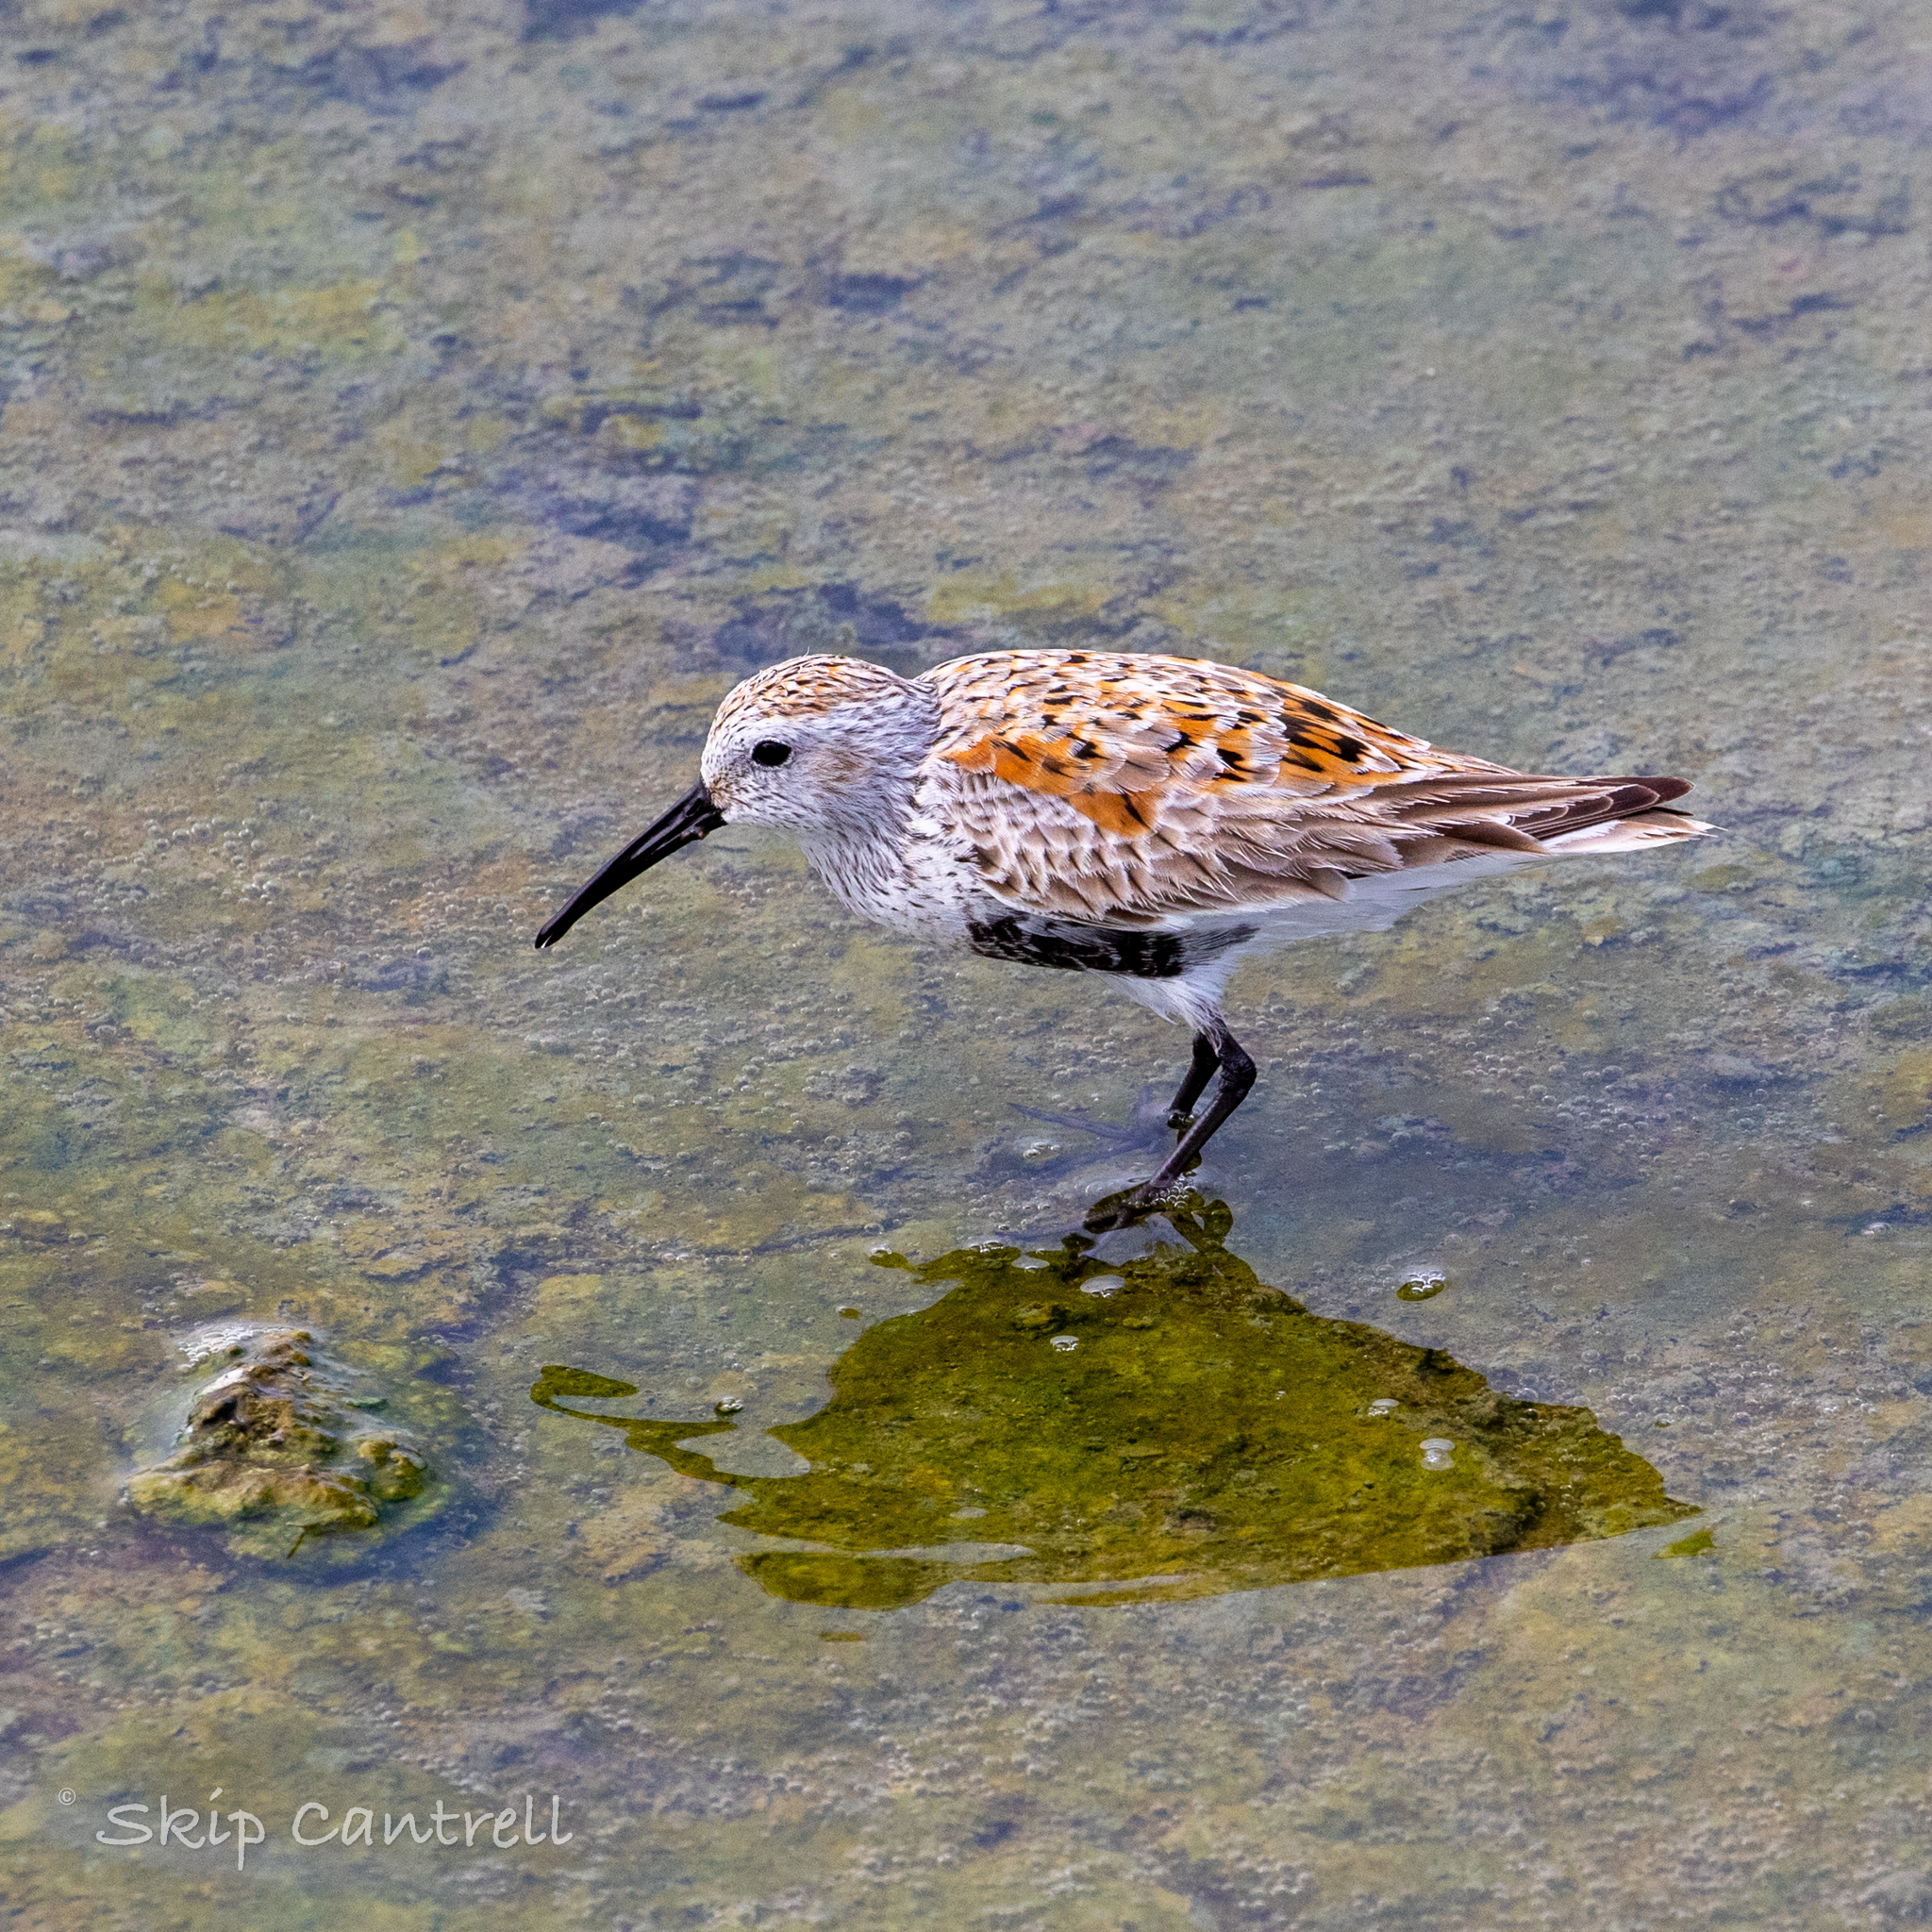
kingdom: Animalia
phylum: Chordata
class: Aves
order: Charadriiformes
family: Scolopacidae
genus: Calidris
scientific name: Calidris alpina
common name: Dunlin
